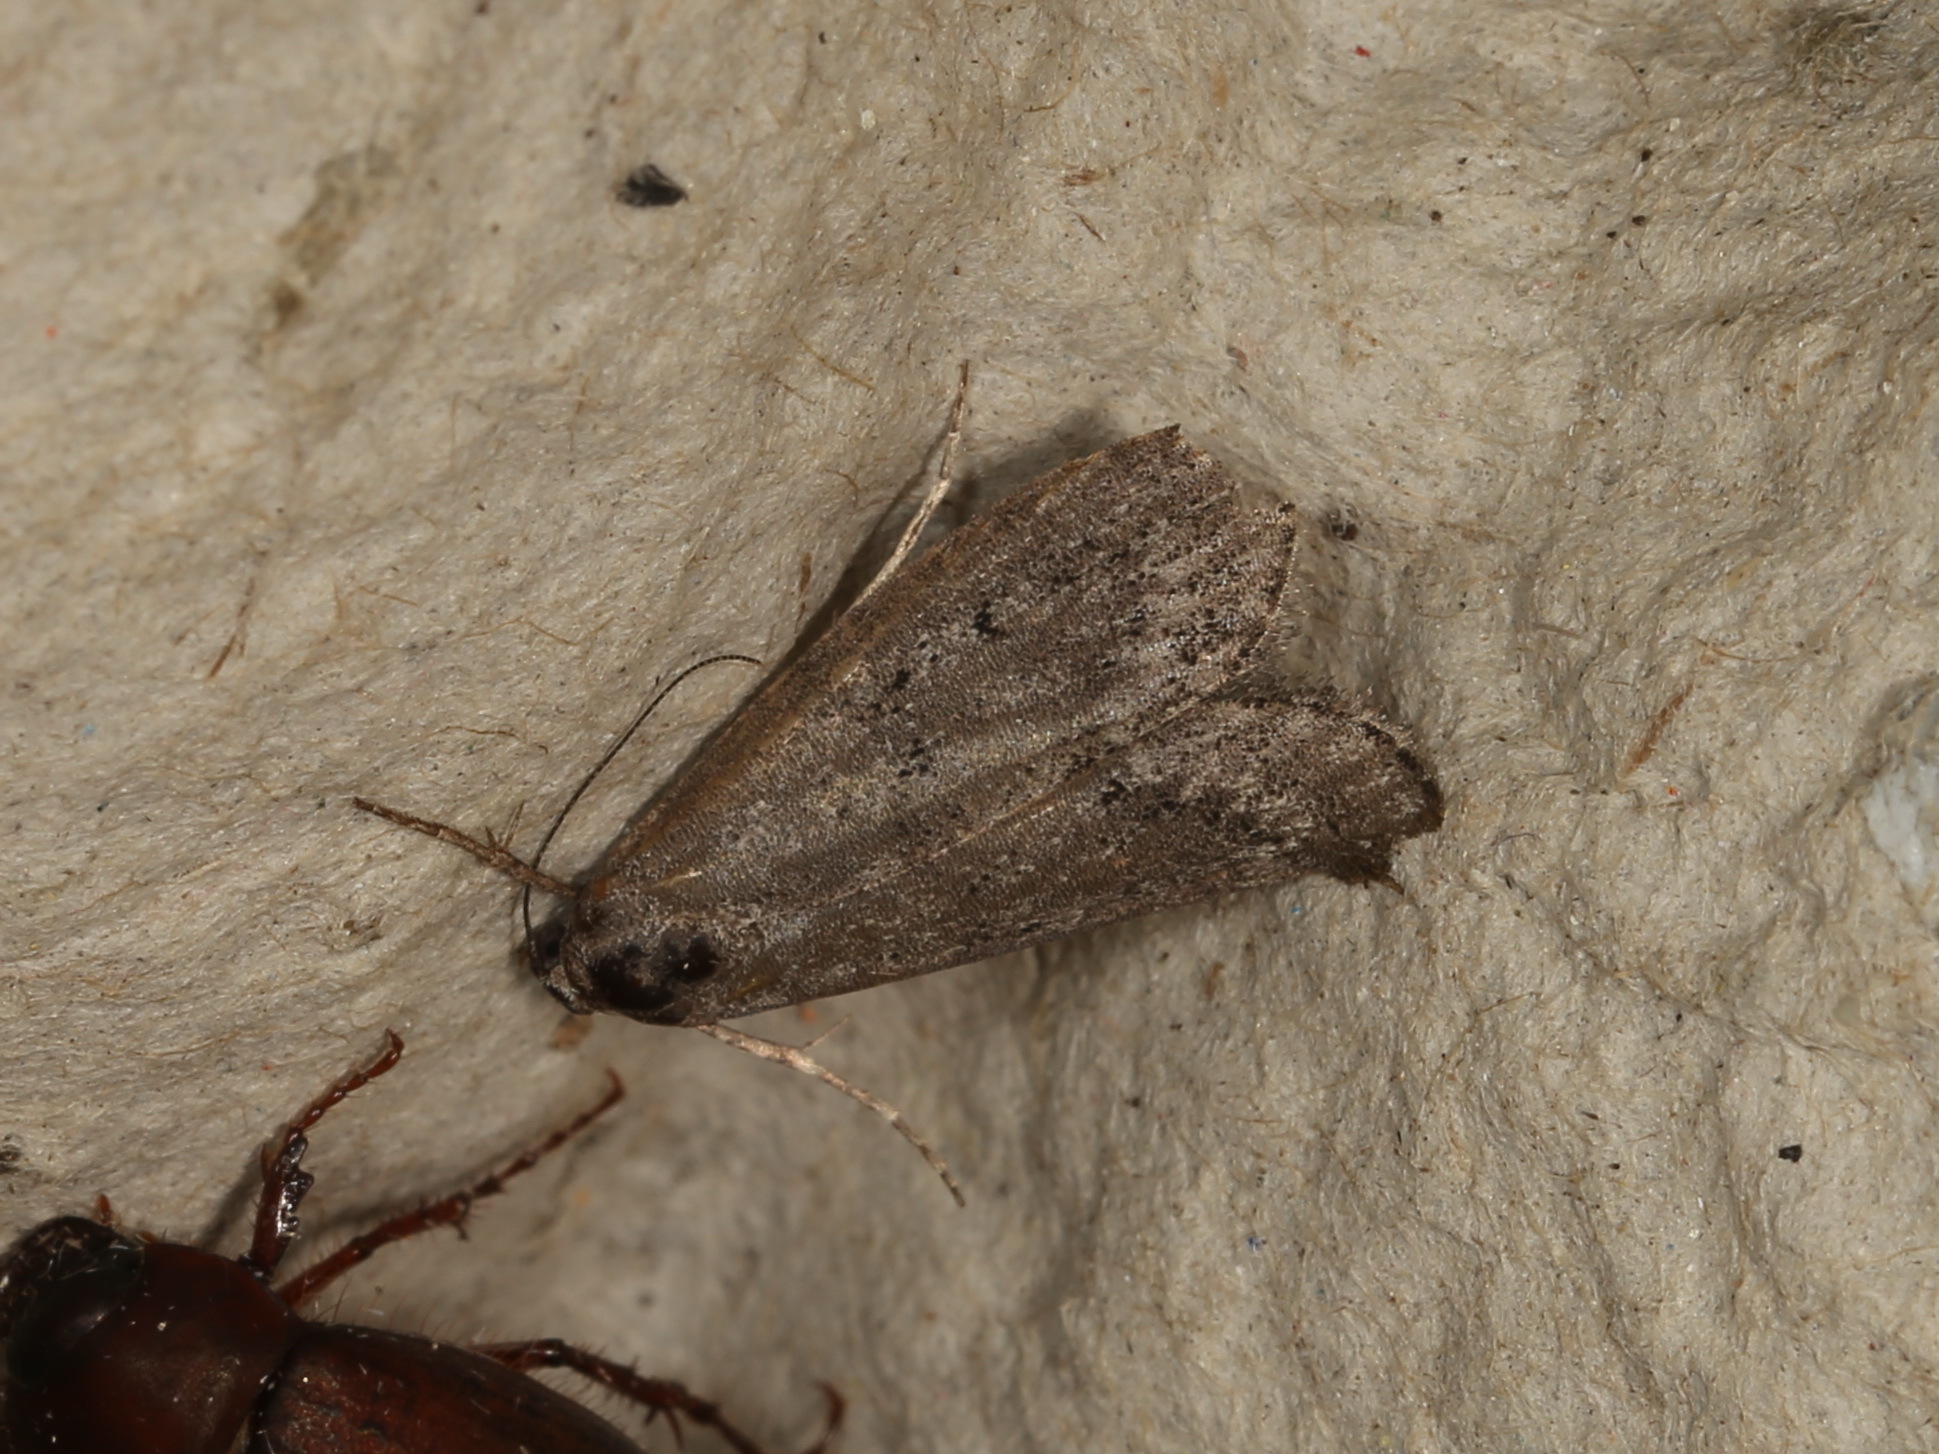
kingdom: Animalia
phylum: Arthropoda
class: Insecta
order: Lepidoptera
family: Pyralidae
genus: Heteromicta
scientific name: Heteromicta pachytera
